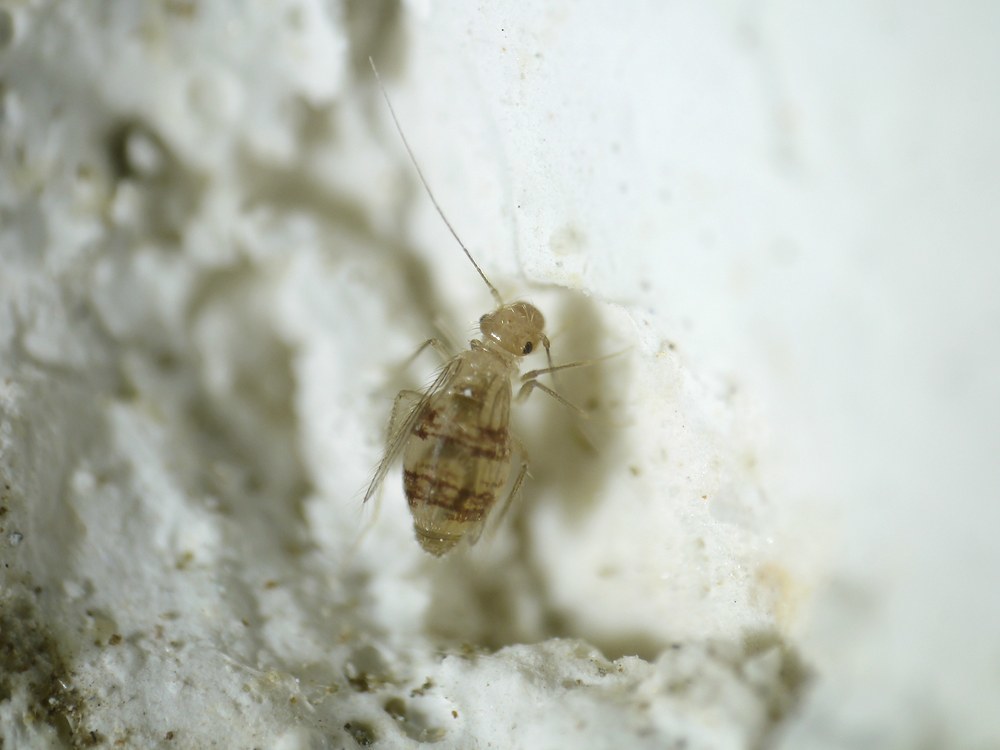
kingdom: Animalia
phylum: Arthropoda
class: Insecta
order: Psocodea
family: Psyllipsocidae
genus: Dorypteryx
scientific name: Dorypteryx domestica
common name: Cave barklouse
